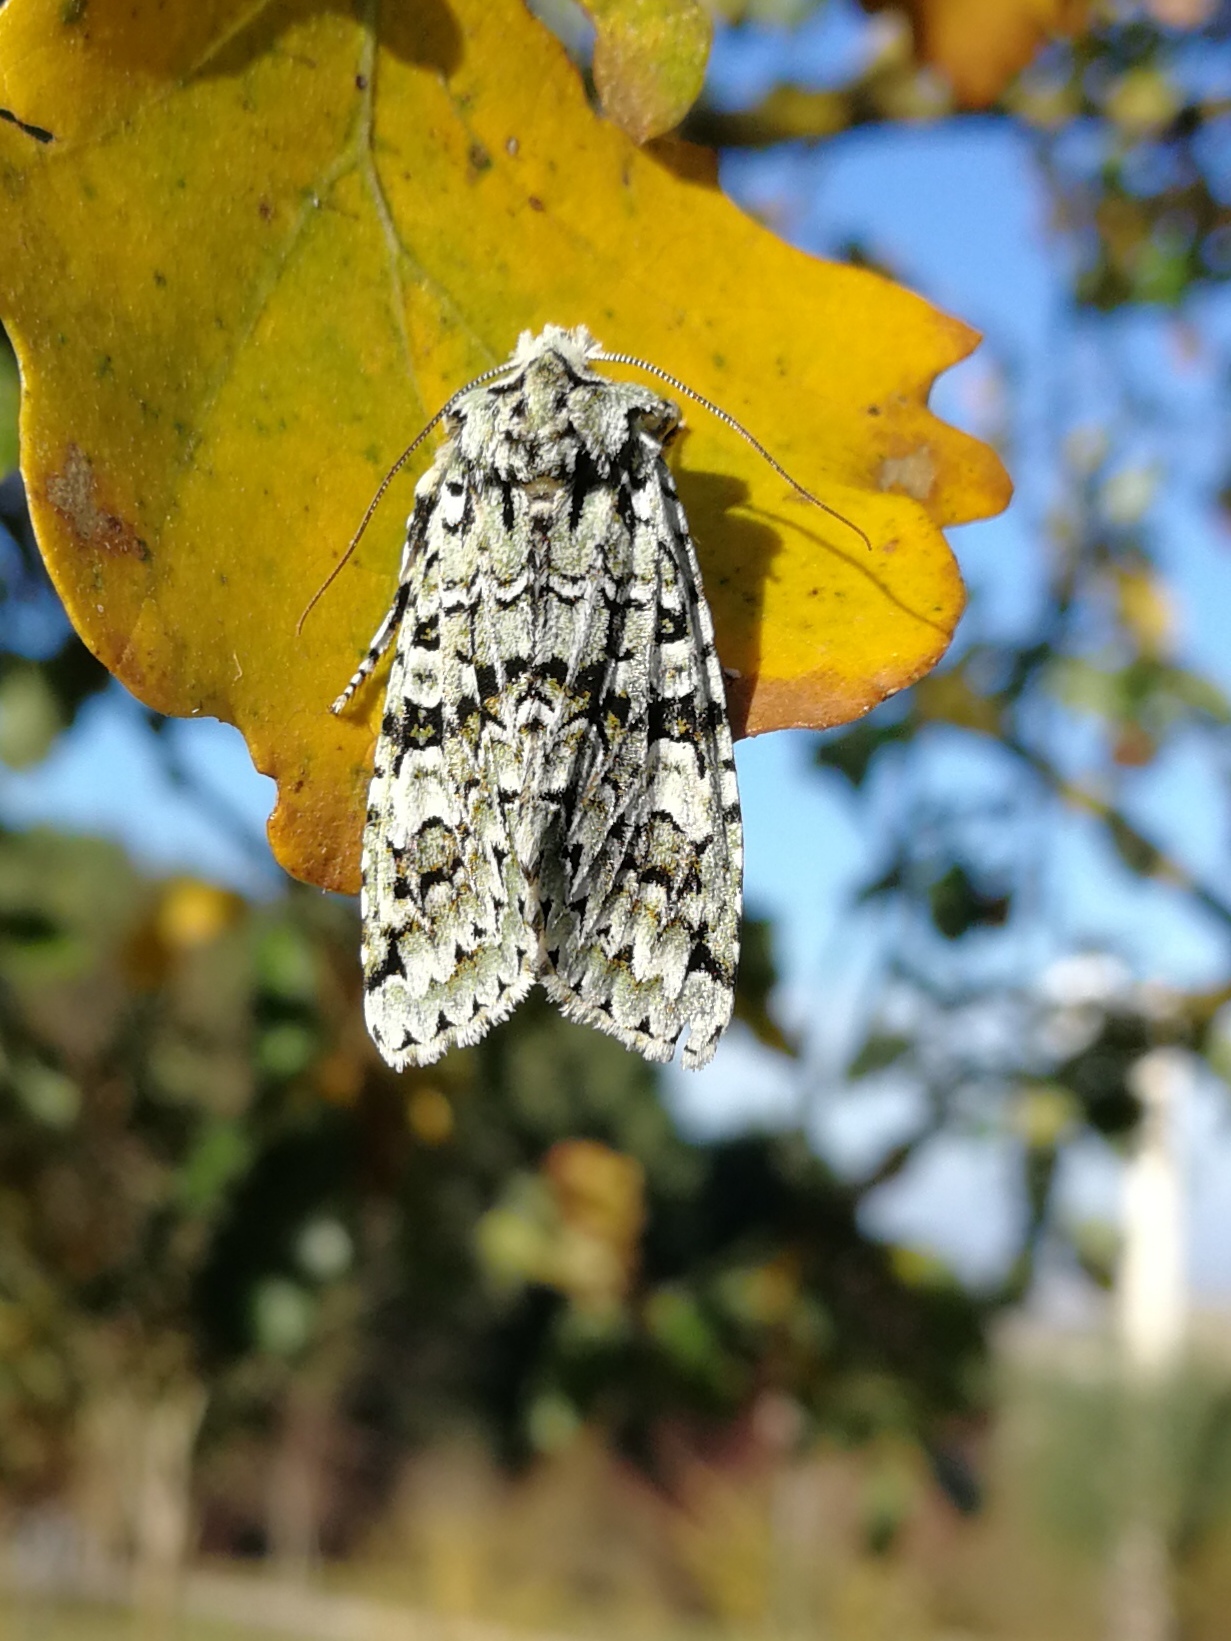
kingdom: Animalia
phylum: Arthropoda
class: Insecta
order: Lepidoptera
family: Noctuidae
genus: Griposia
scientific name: Griposia aprilina
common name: Merveille du jour
